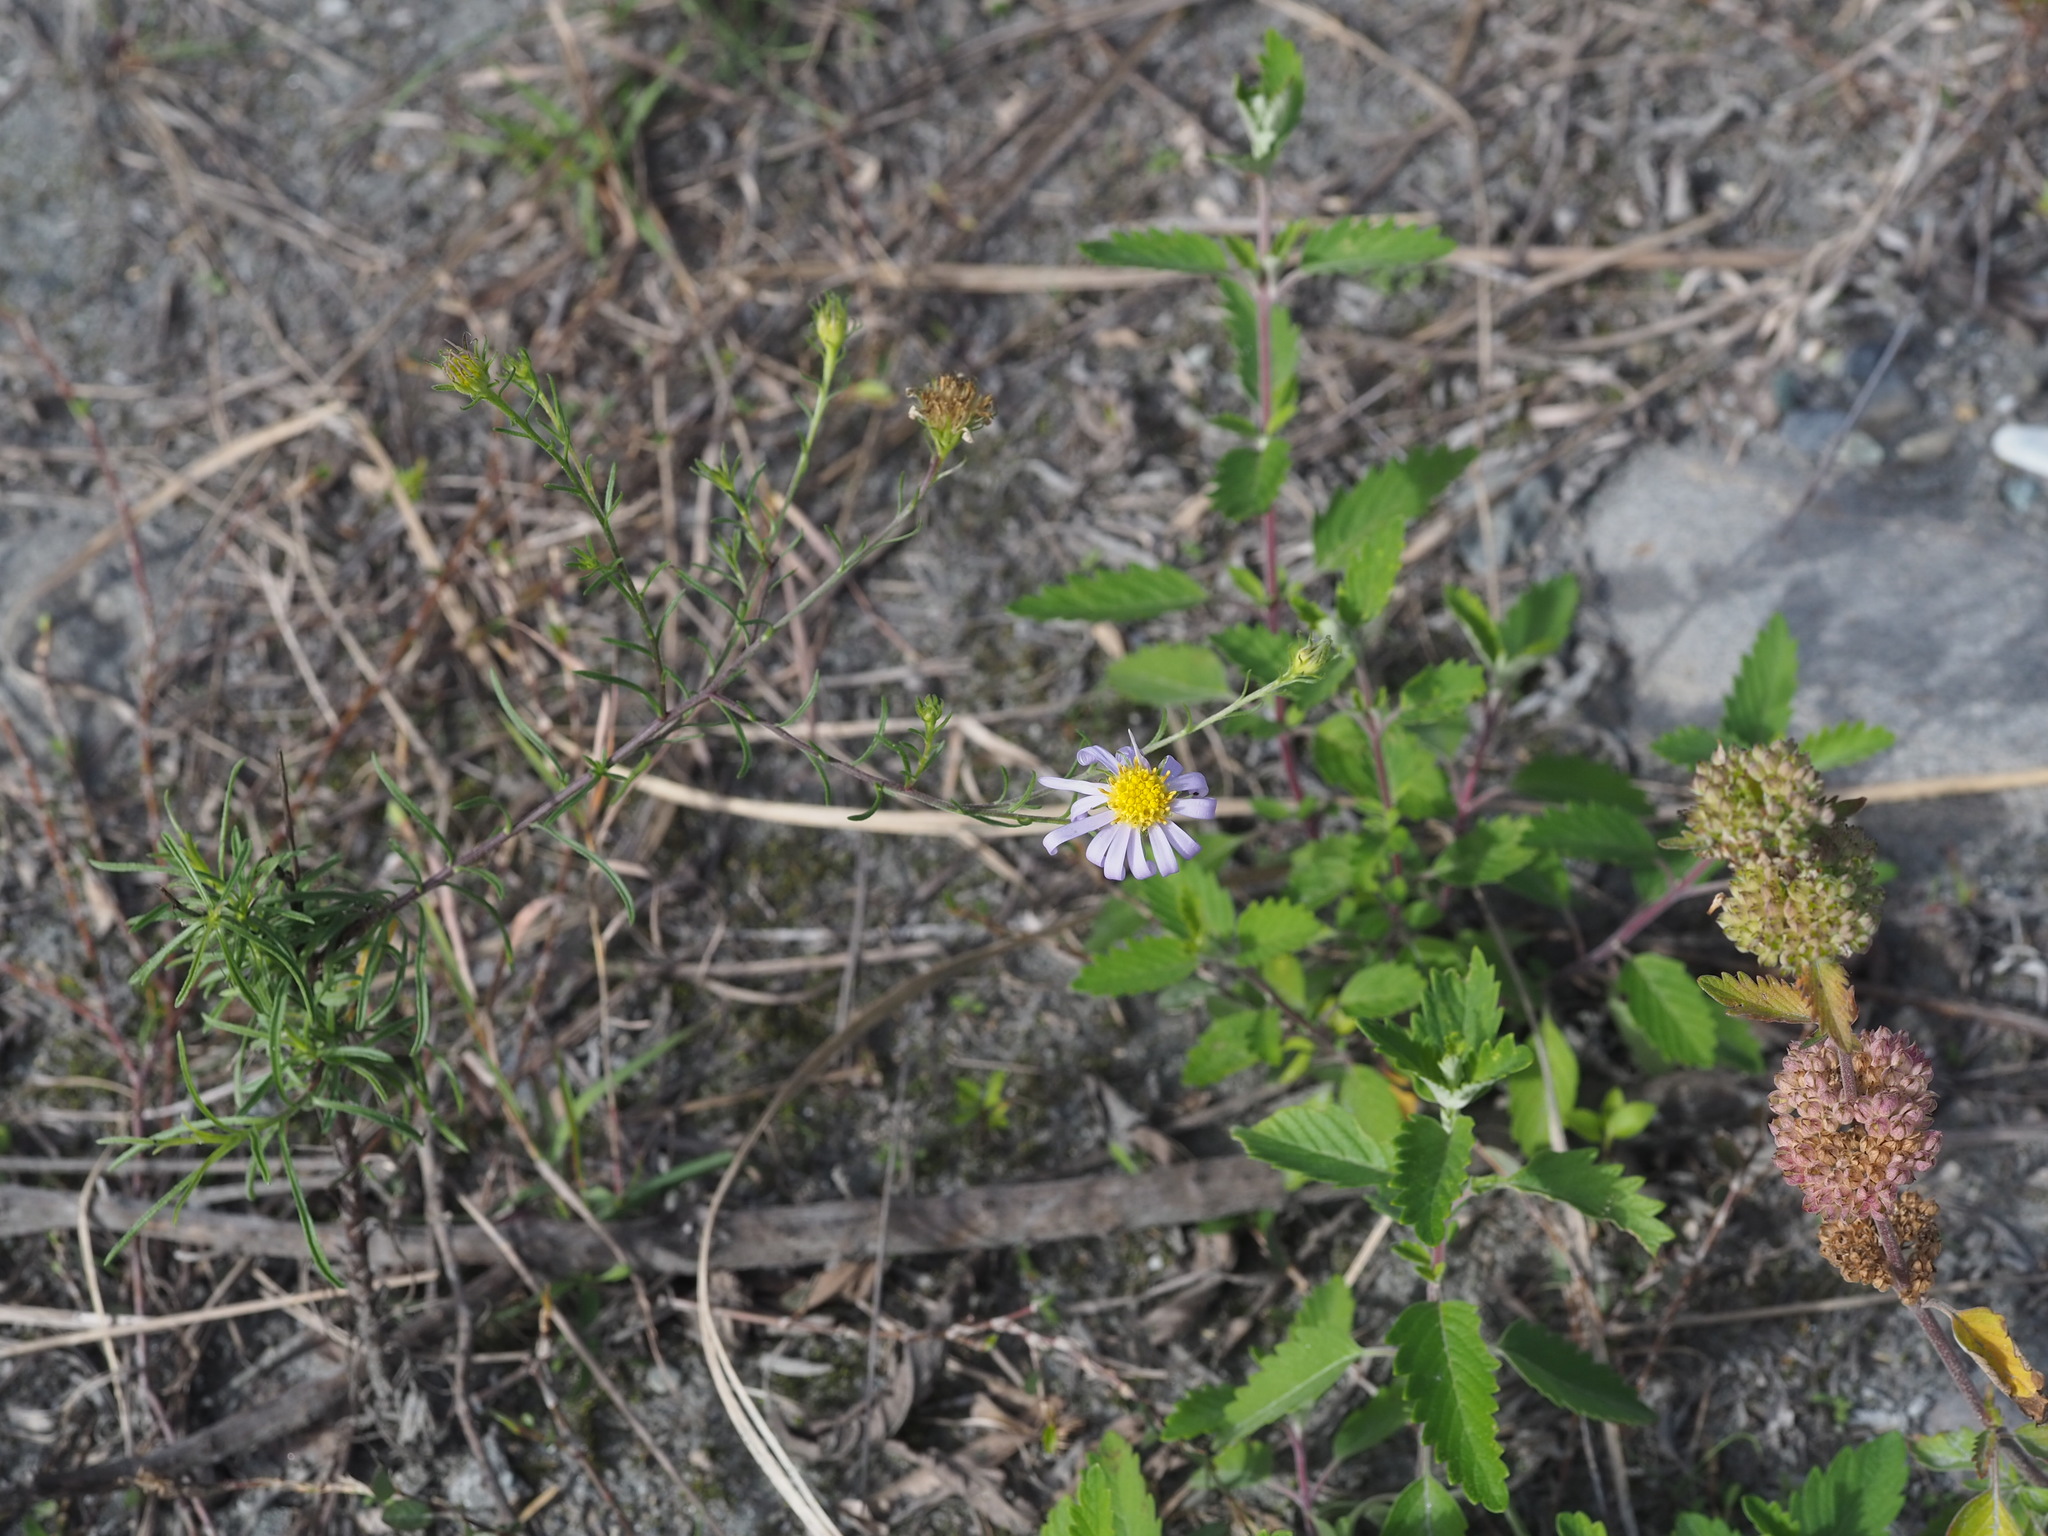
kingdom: Plantae
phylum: Tracheophyta
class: Magnoliopsida
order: Asterales
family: Asteraceae
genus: Heteropappus
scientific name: Heteropappus altaicus
